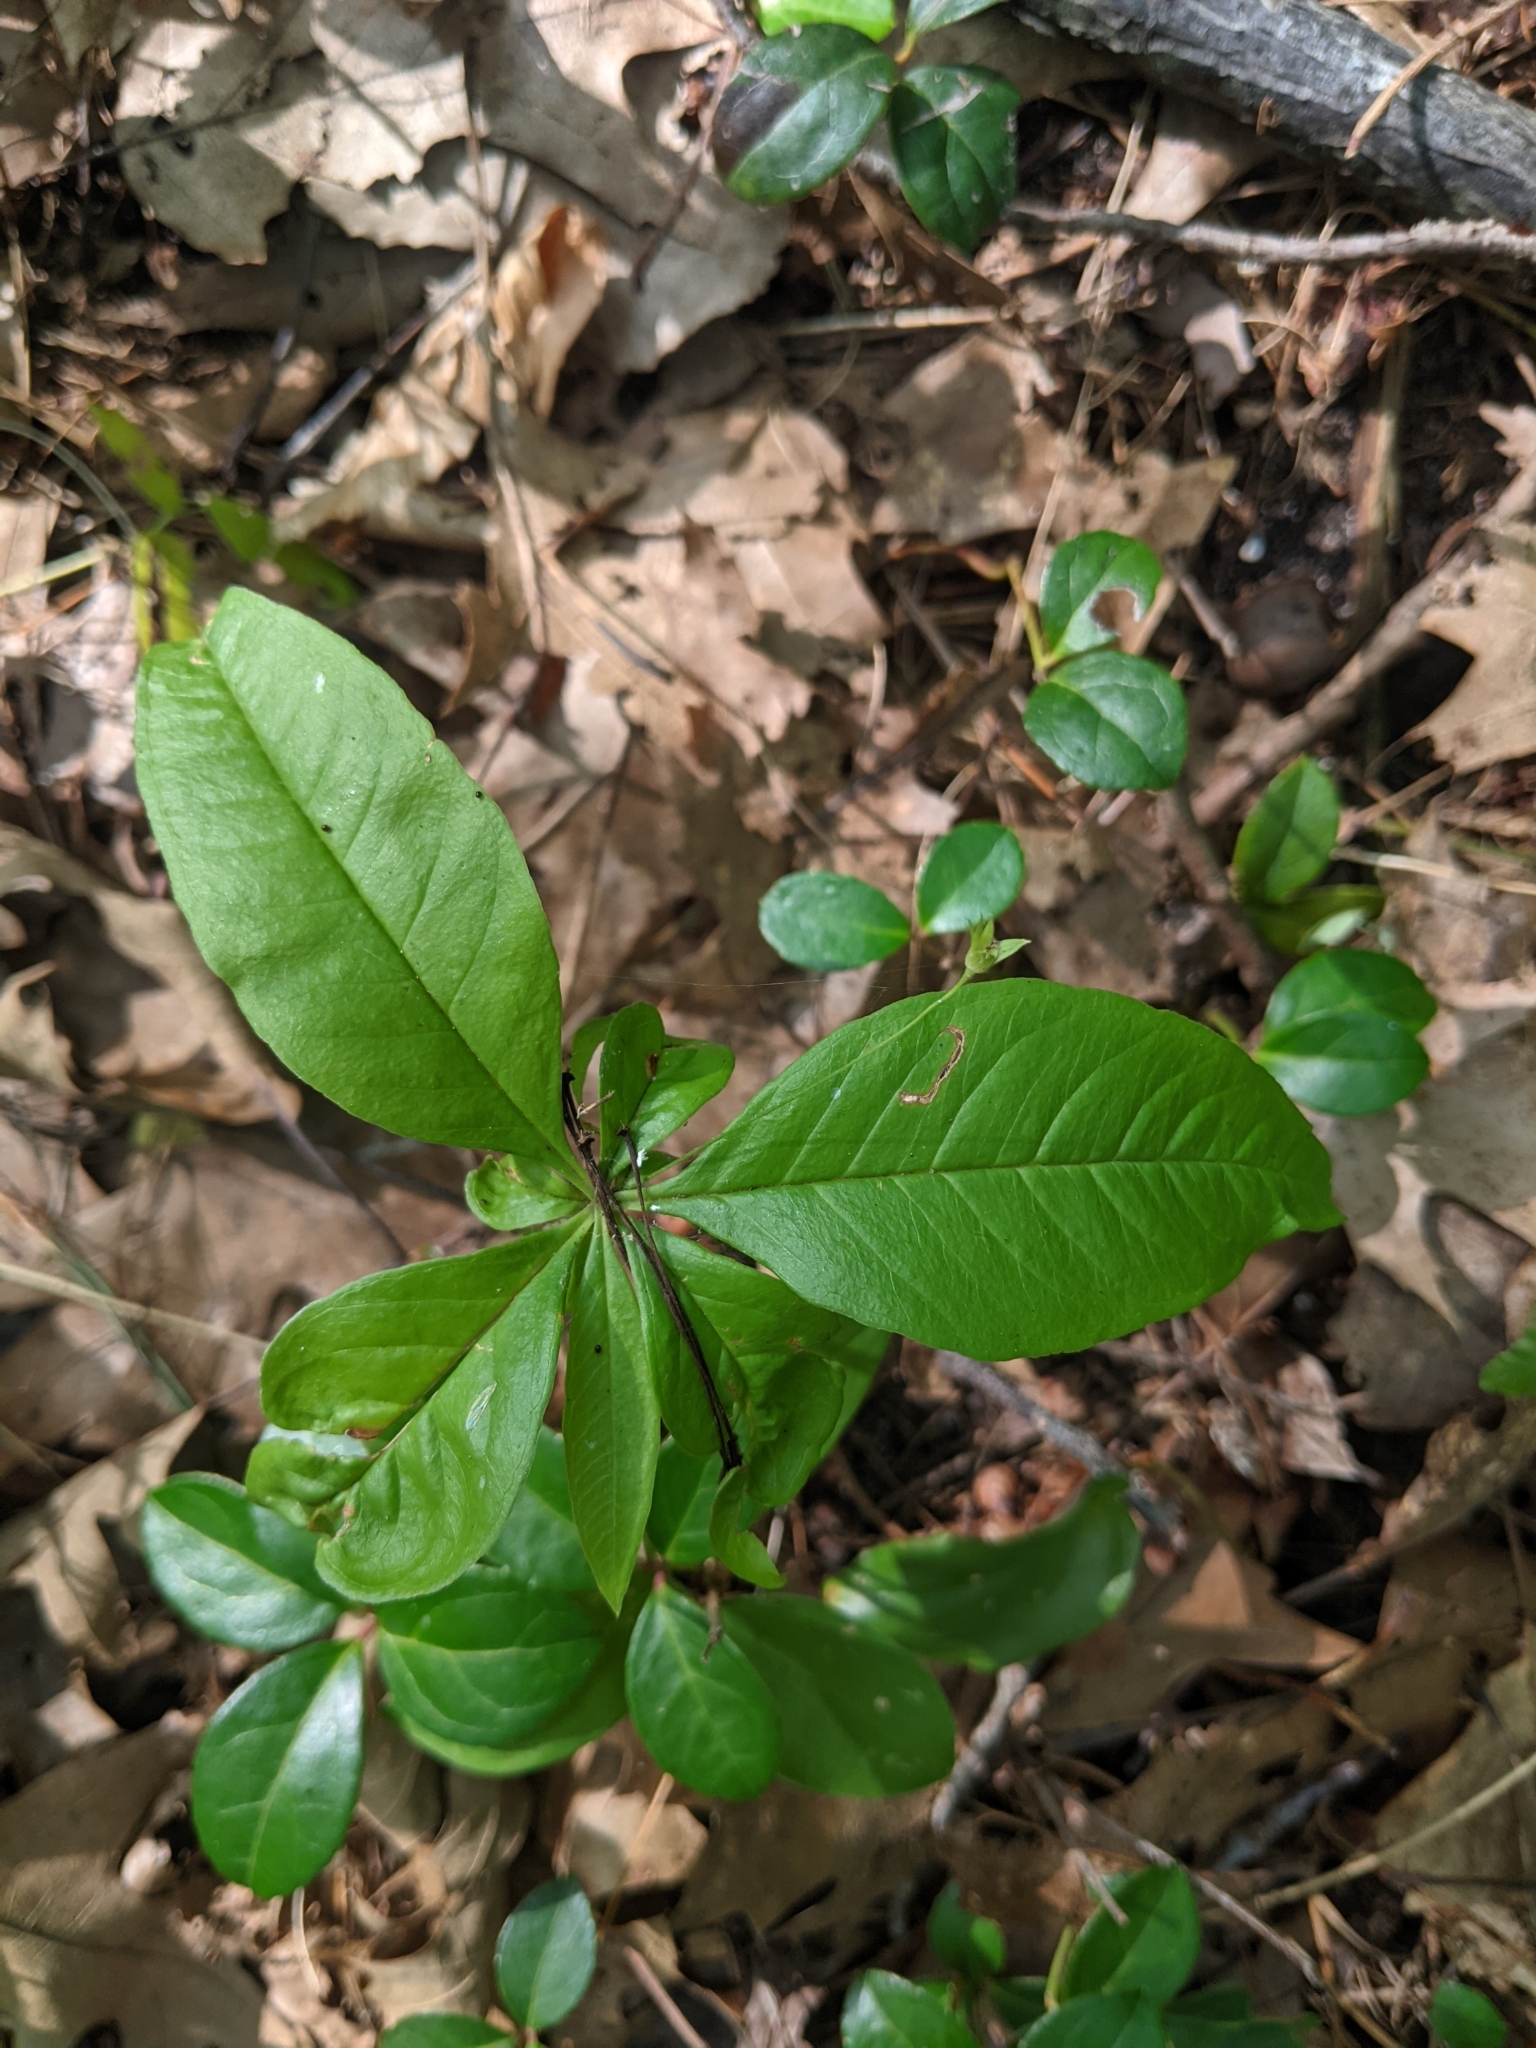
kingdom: Plantae
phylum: Tracheophyta
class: Magnoliopsida
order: Ericales
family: Primulaceae
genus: Lysimachia
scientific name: Lysimachia borealis
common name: American starflower
